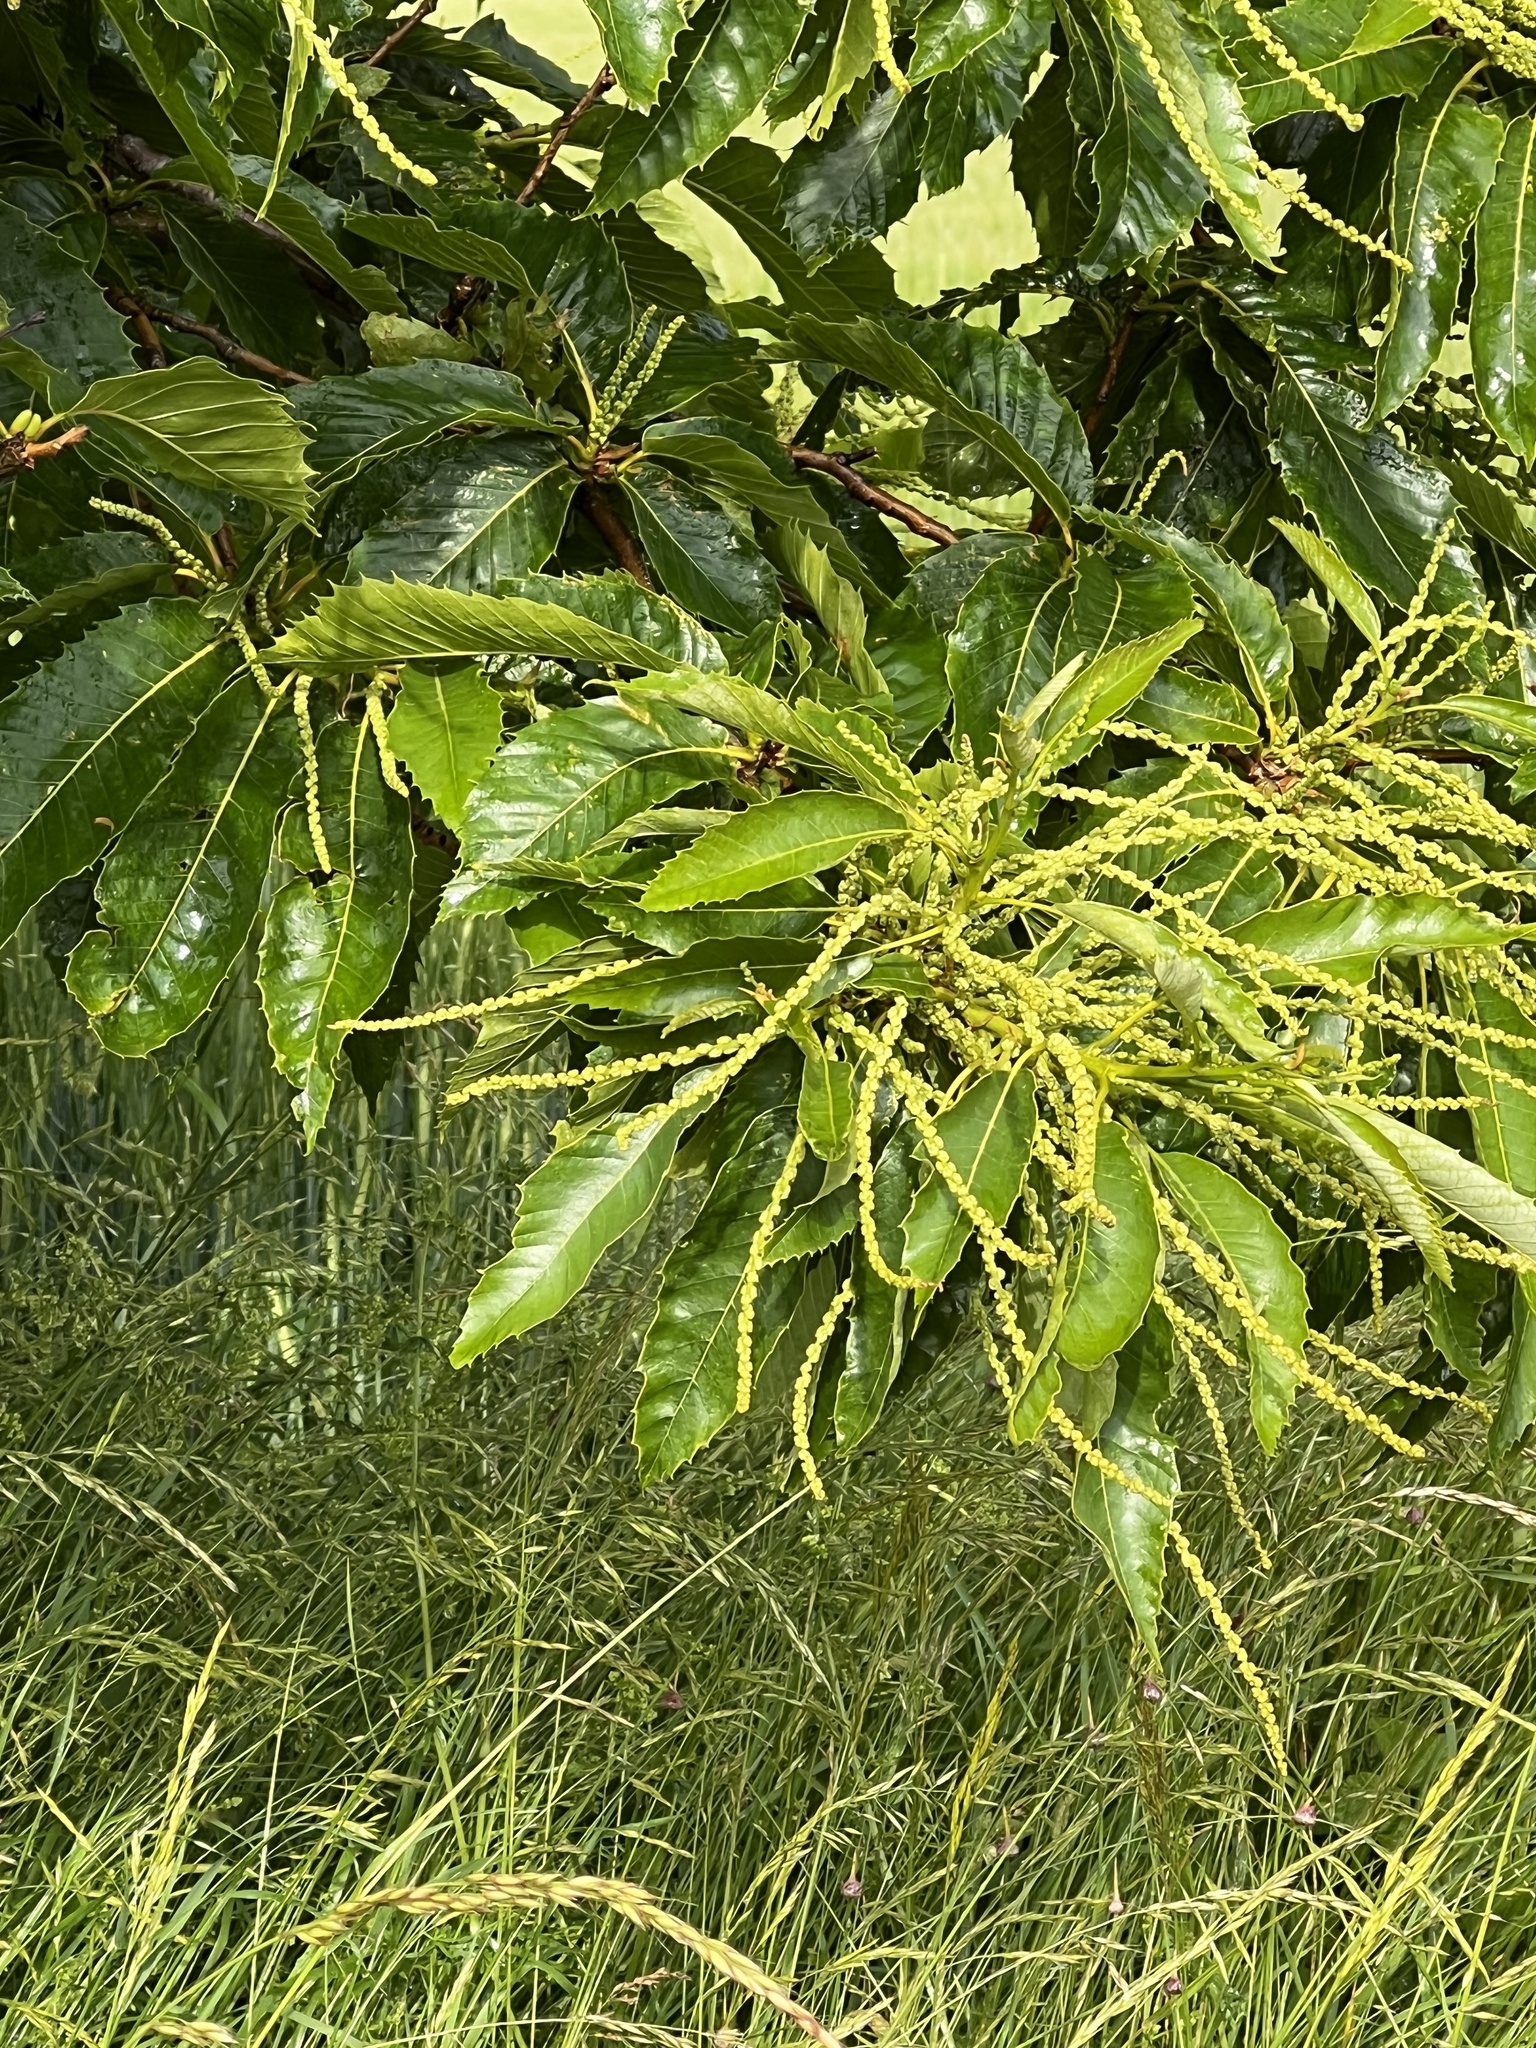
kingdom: Plantae
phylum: Tracheophyta
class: Magnoliopsida
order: Fagales
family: Fagaceae
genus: Castanea
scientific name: Castanea sativa
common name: Sweet chestnut
